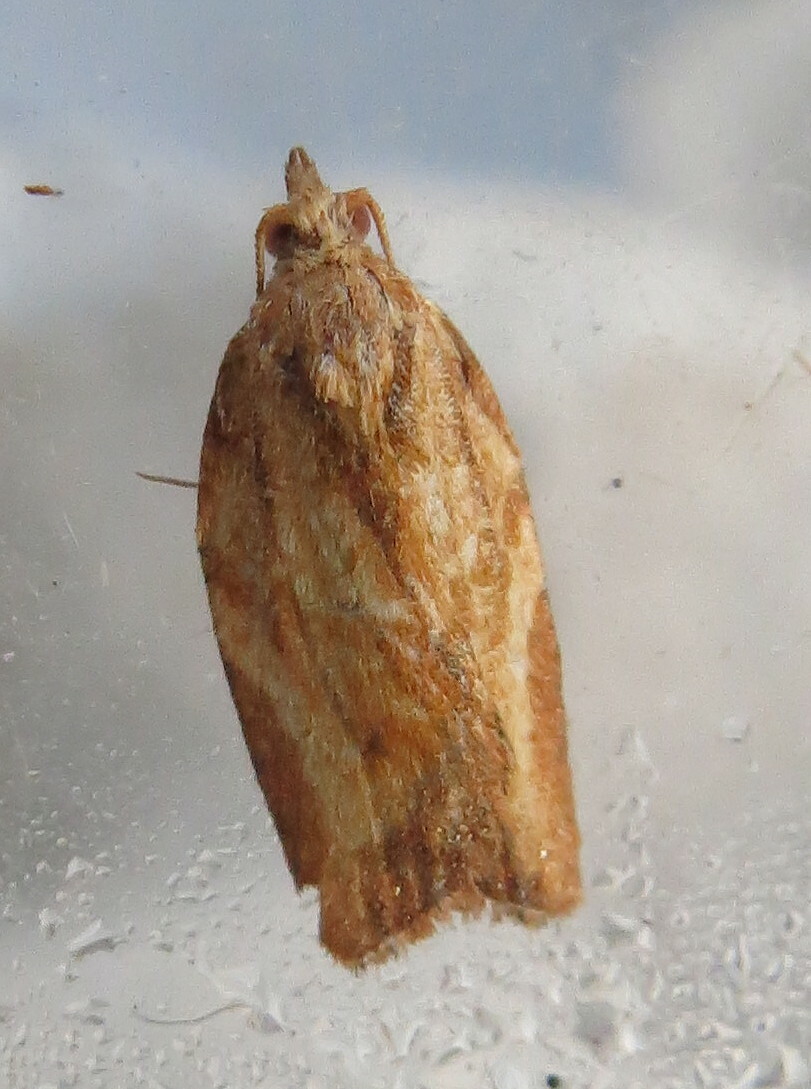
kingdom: Animalia
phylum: Arthropoda
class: Insecta
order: Lepidoptera
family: Tortricidae
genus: Epiphyas
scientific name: Epiphyas postvittana
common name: Light brown apple moth
